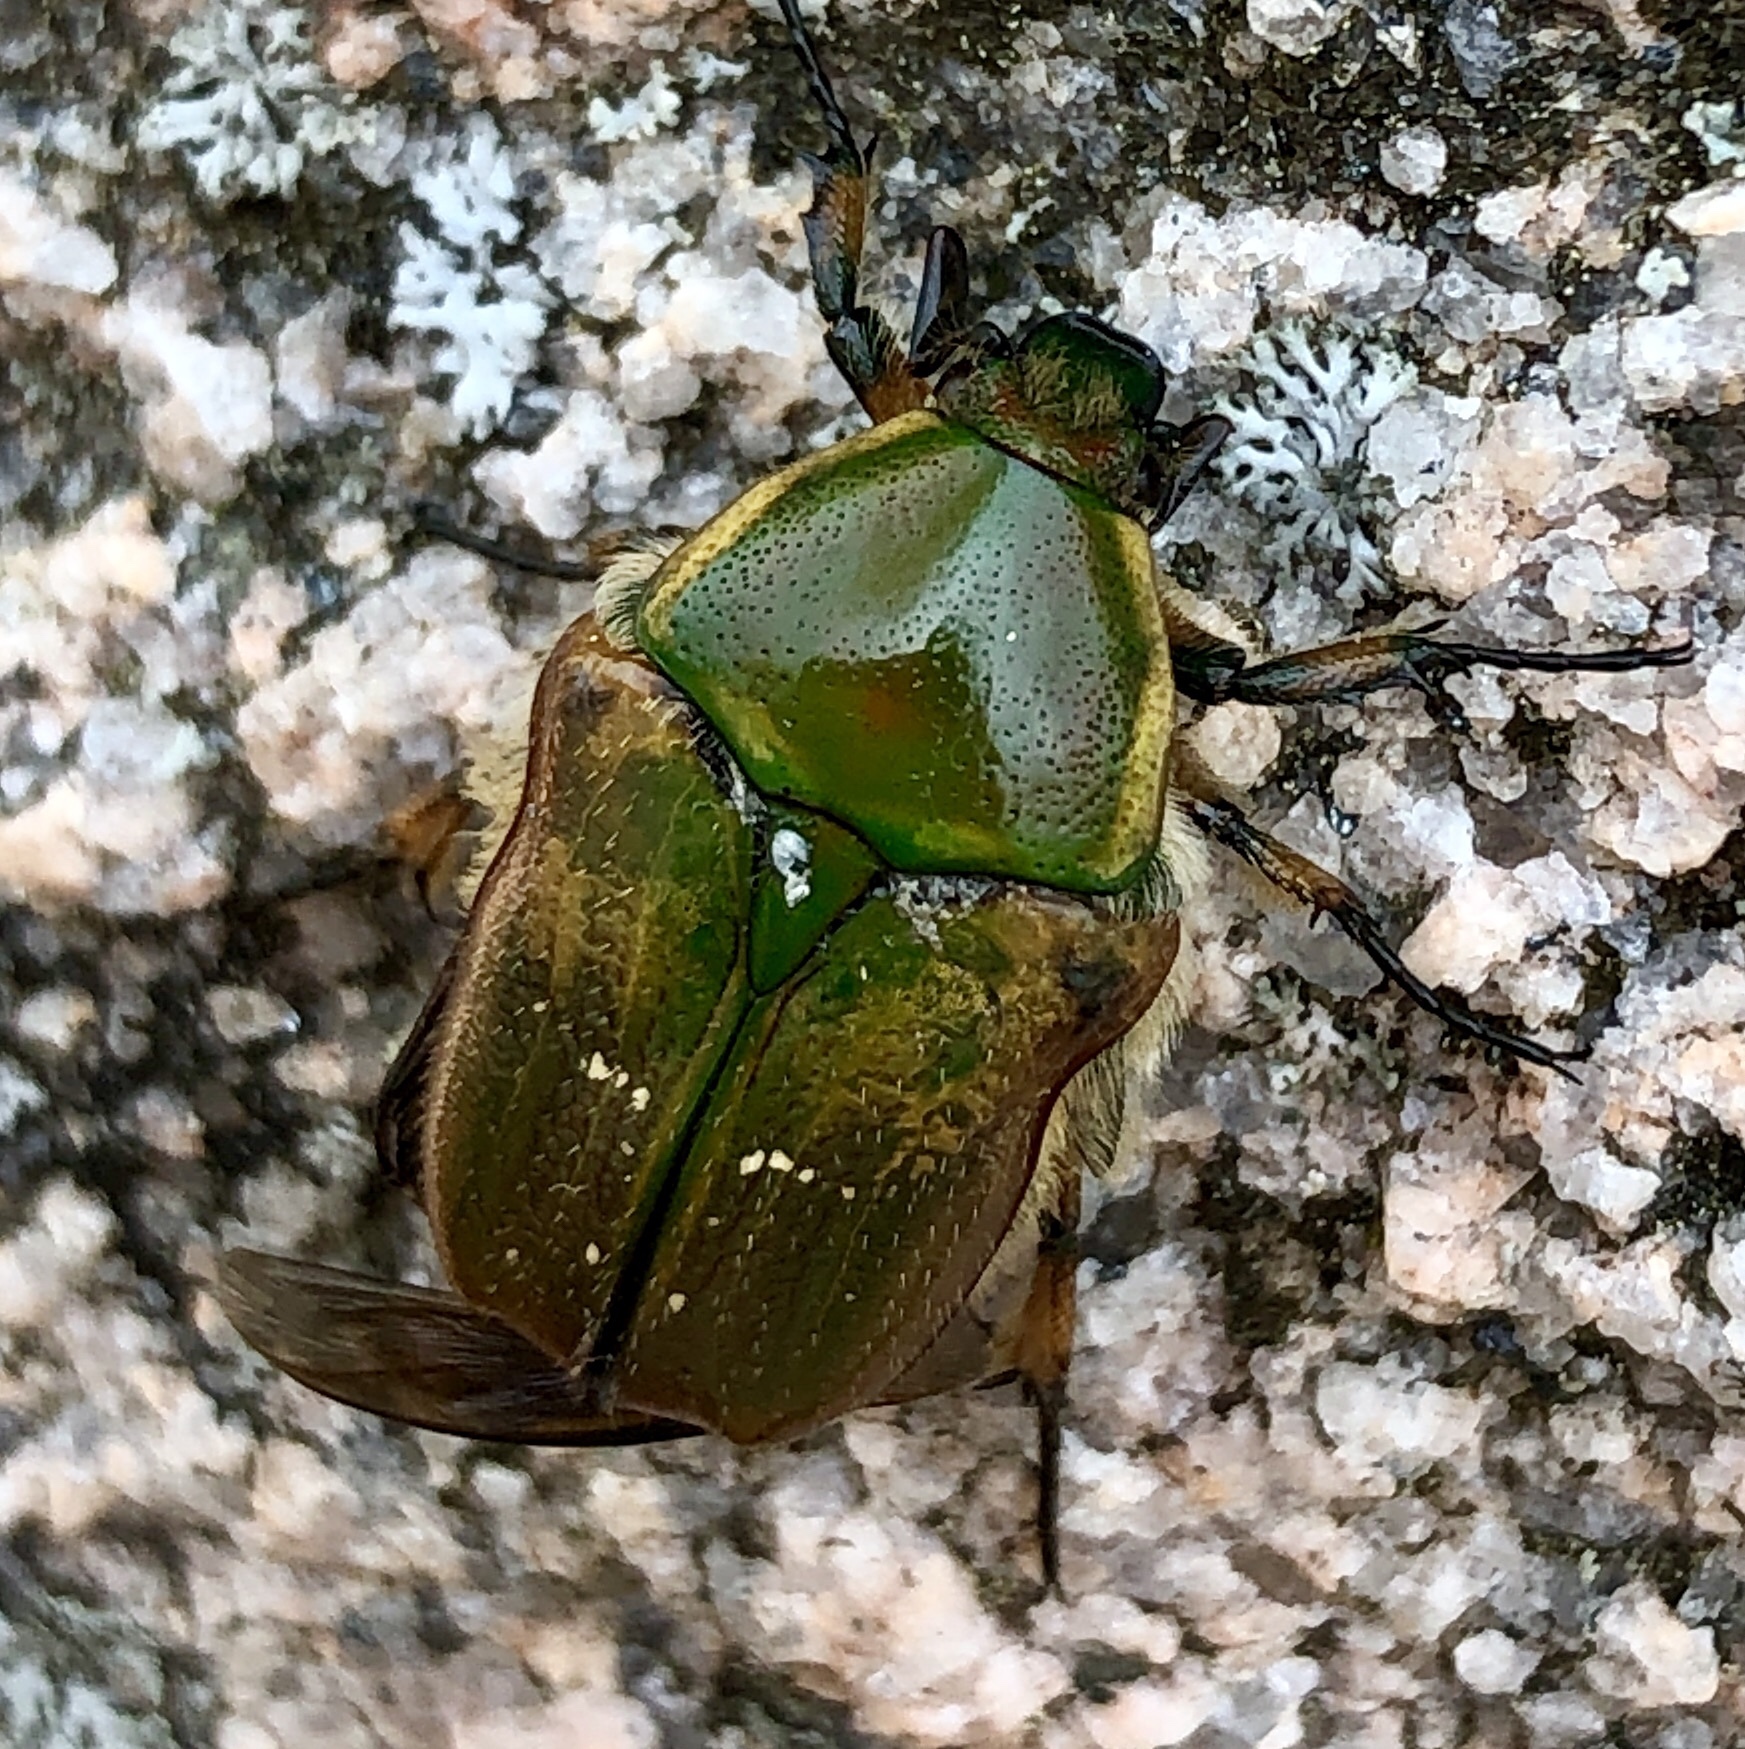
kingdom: Animalia
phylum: Arthropoda
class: Insecta
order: Coleoptera
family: Scarabaeidae
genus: Euphoria
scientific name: Euphoria fulgida
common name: Emerald euphoria
